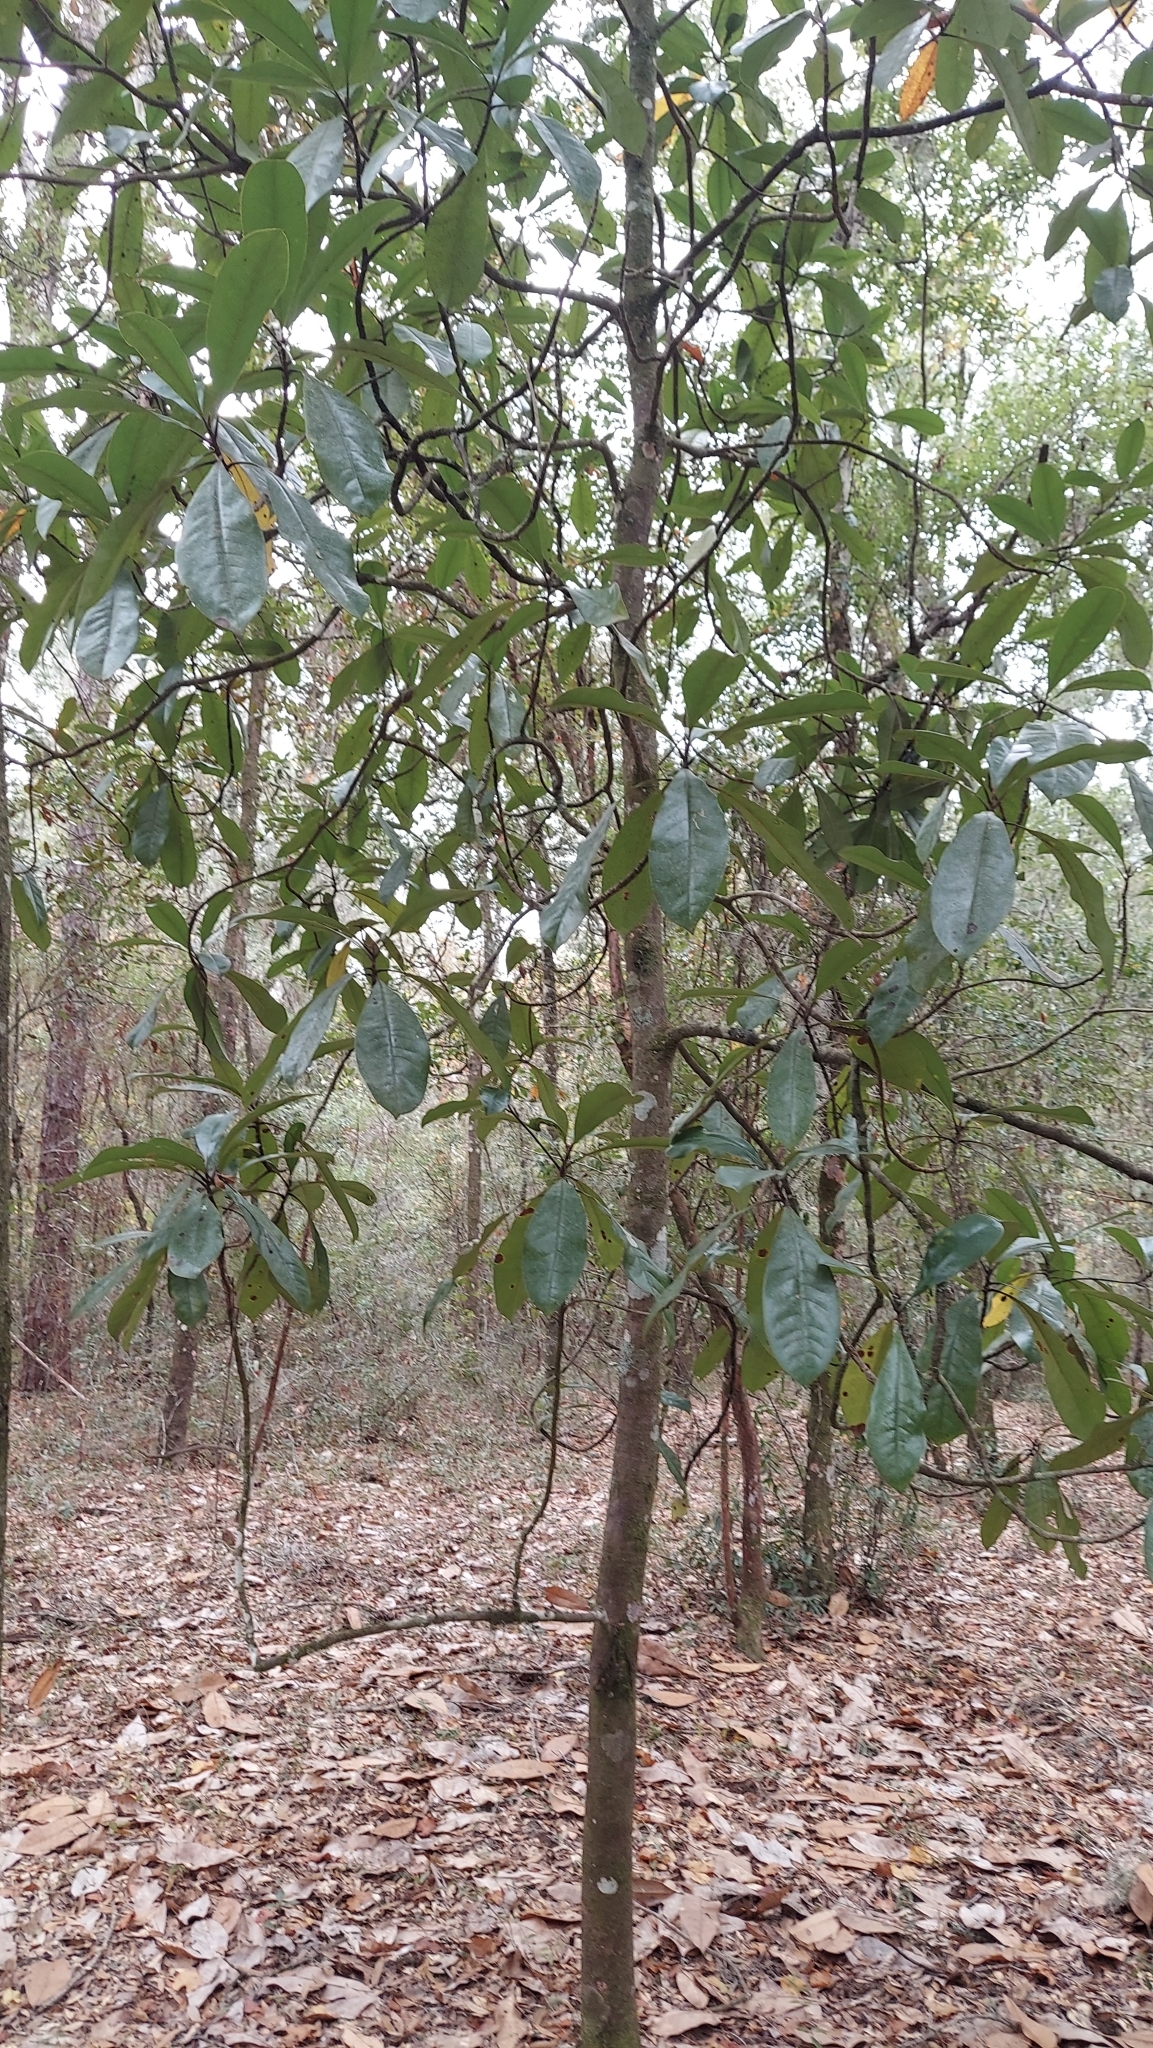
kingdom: Plantae
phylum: Tracheophyta
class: Magnoliopsida
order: Magnoliales
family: Magnoliaceae
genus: Magnolia
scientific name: Magnolia grandiflora
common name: Southern magnolia
